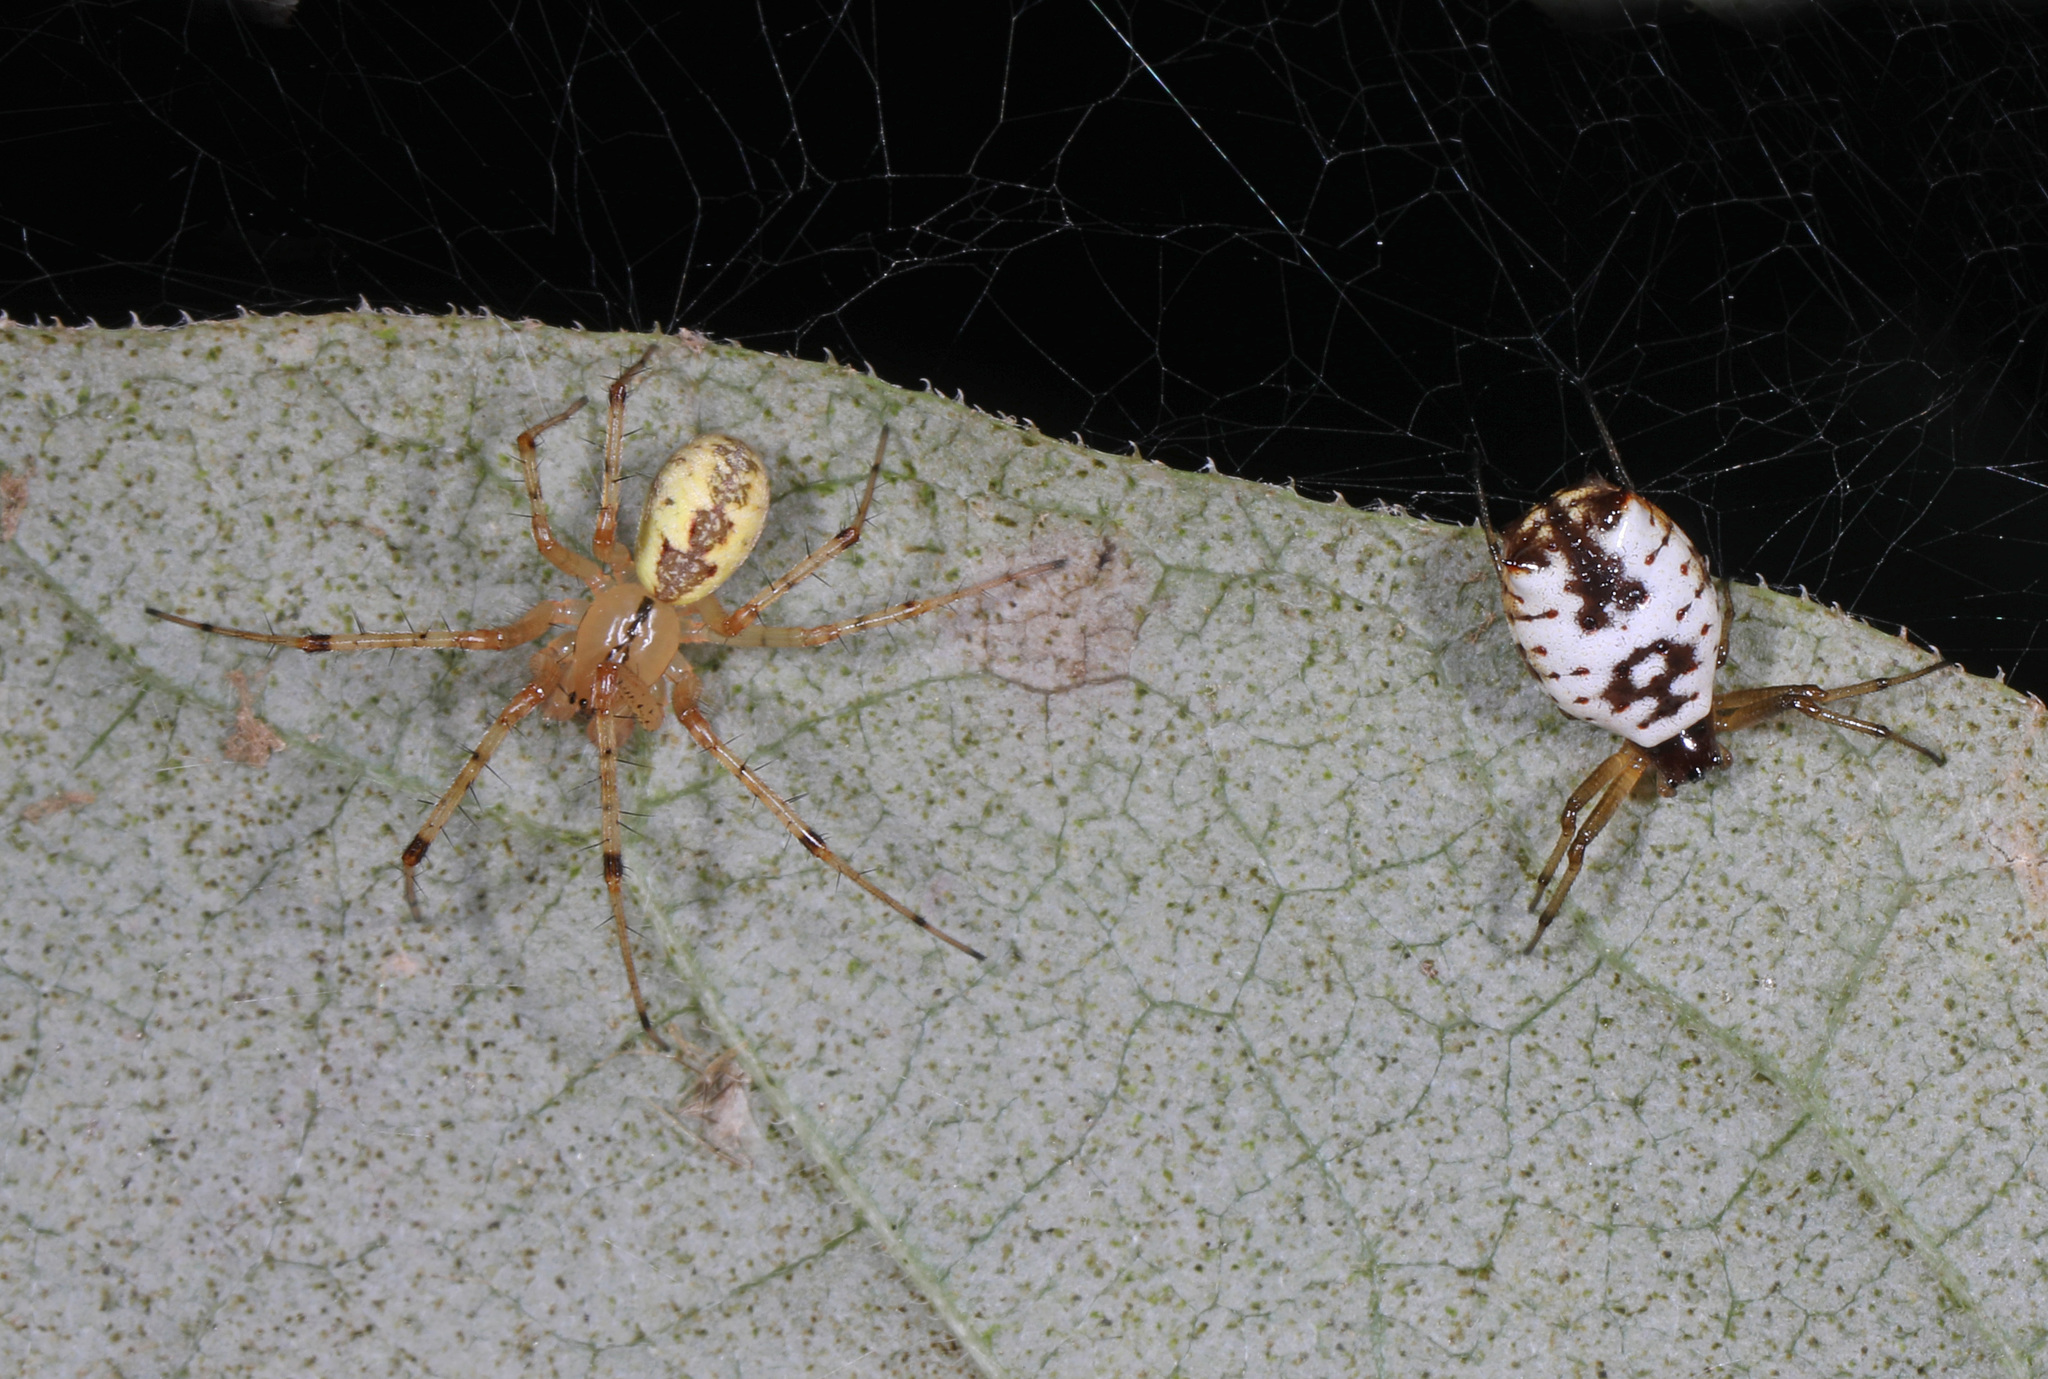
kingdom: Animalia
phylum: Arthropoda
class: Arachnida
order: Araneae
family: Araneidae
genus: Micrathena
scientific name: Micrathena mitrata
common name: Orb weavers
